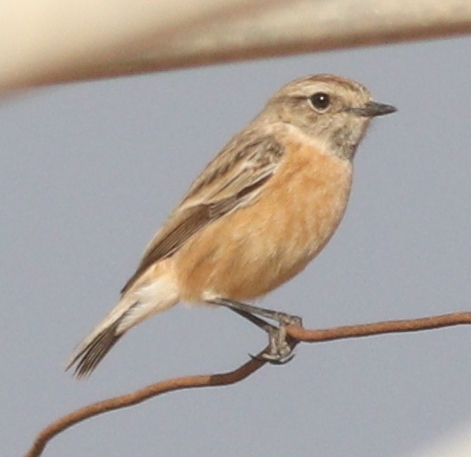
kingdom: Animalia
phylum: Chordata
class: Aves
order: Passeriformes
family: Muscicapidae
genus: Saxicola
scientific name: Saxicola maurus
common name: Siberian stonechat
